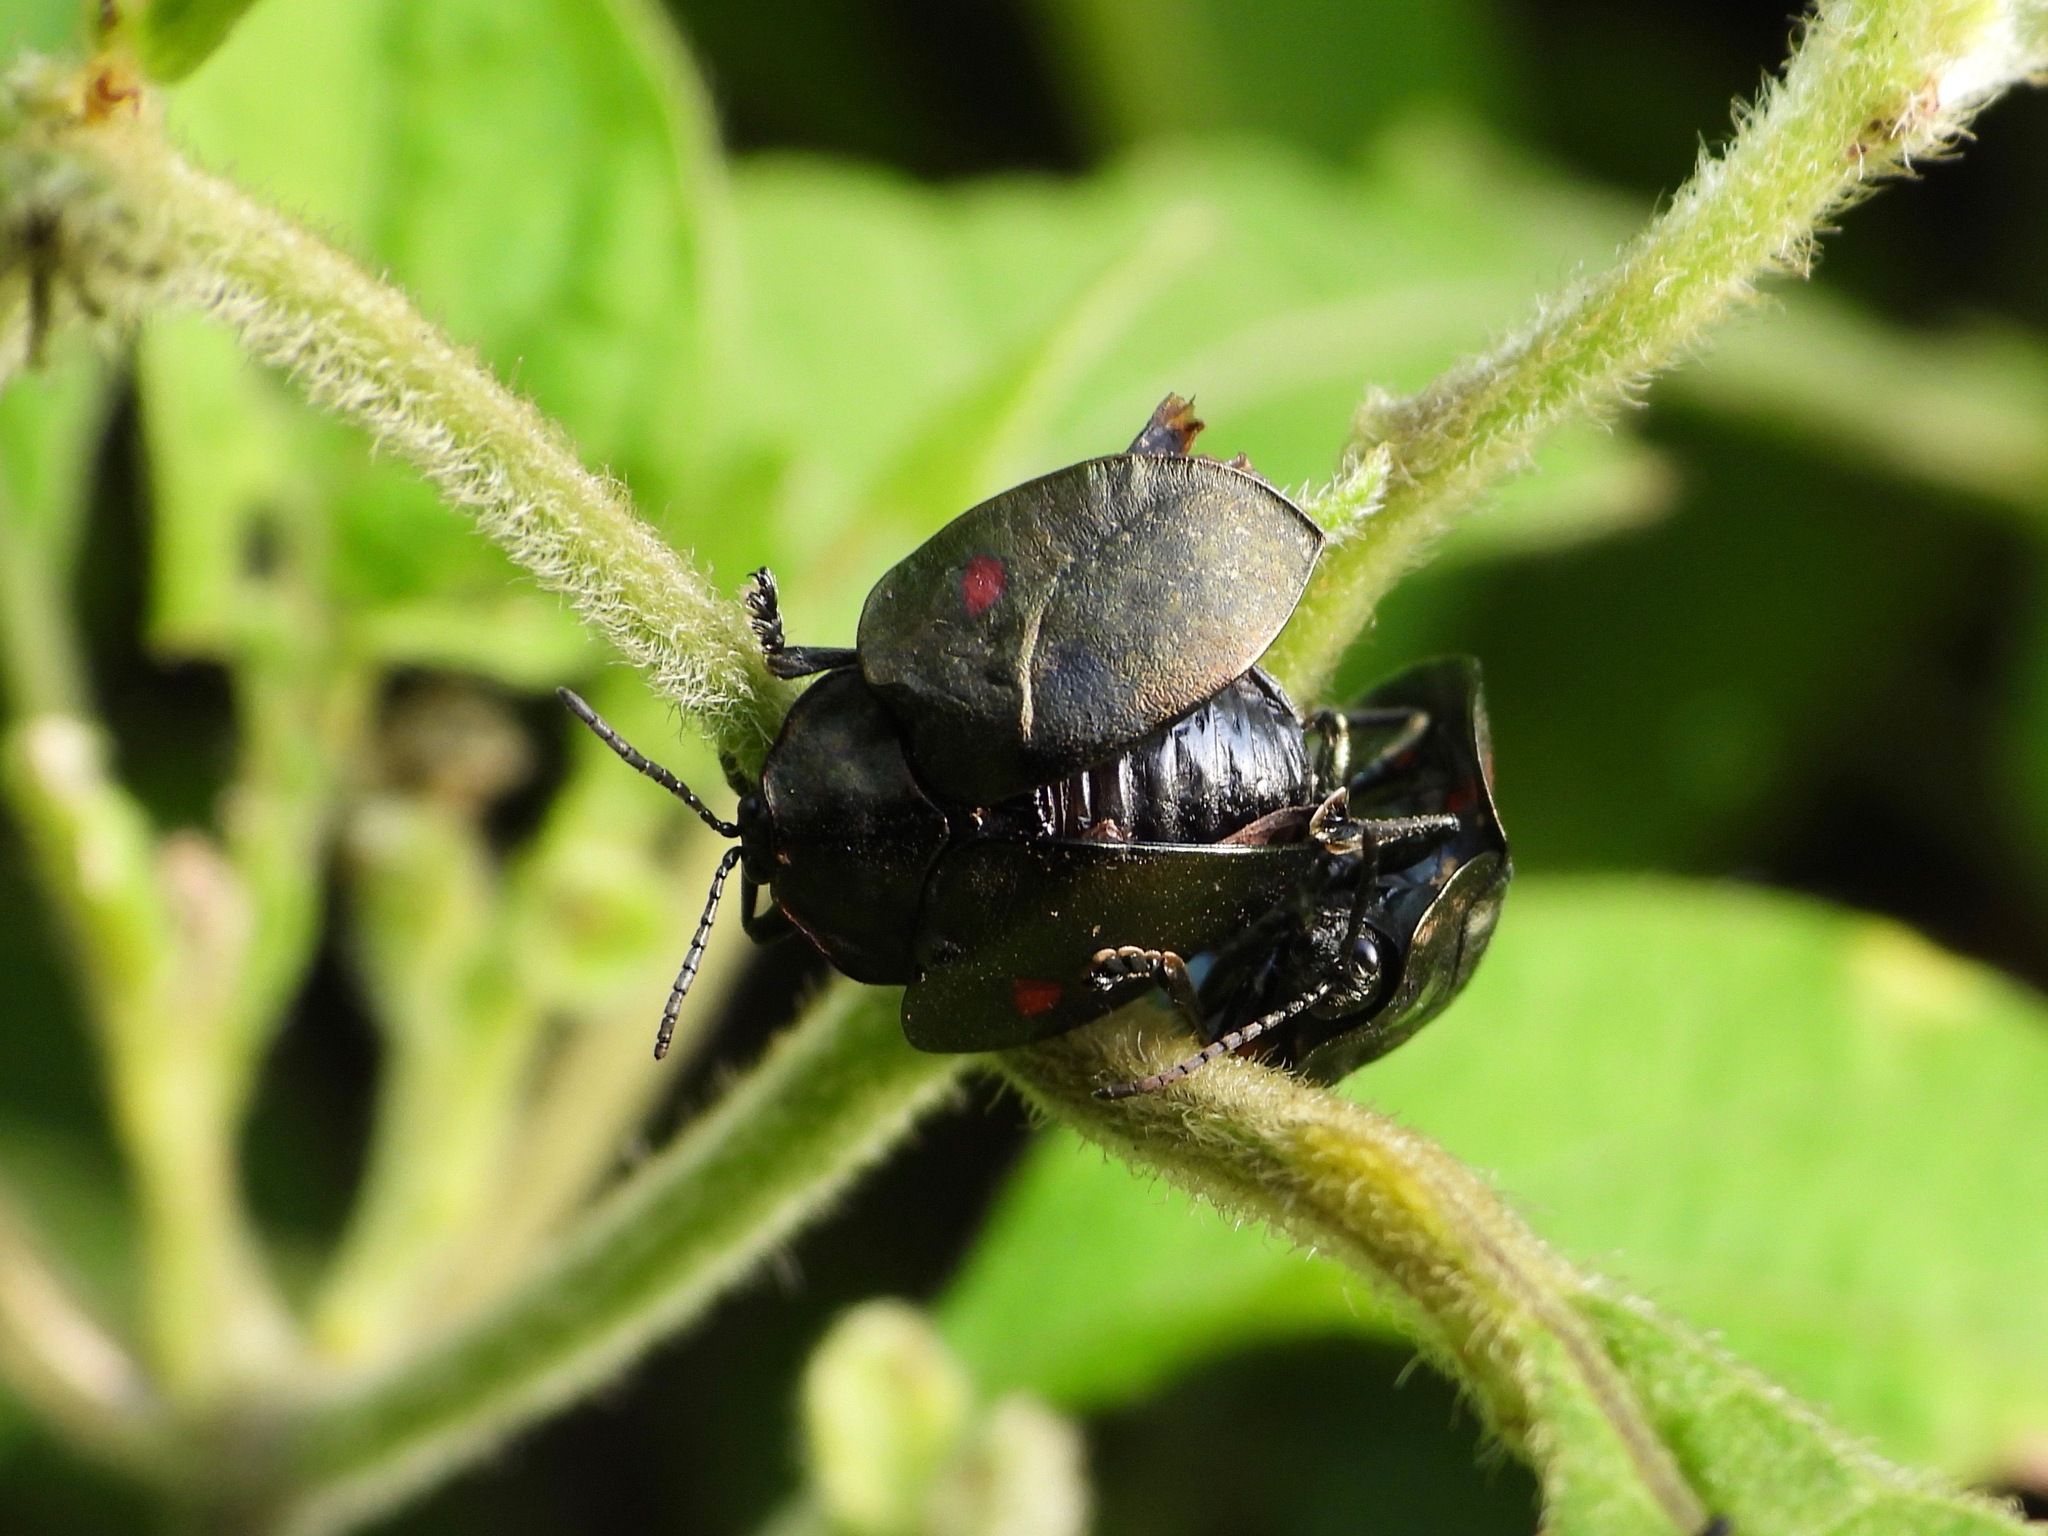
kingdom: Animalia
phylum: Arthropoda
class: Insecta
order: Coleoptera
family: Chrysomelidae
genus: Stolas
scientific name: Stolas
